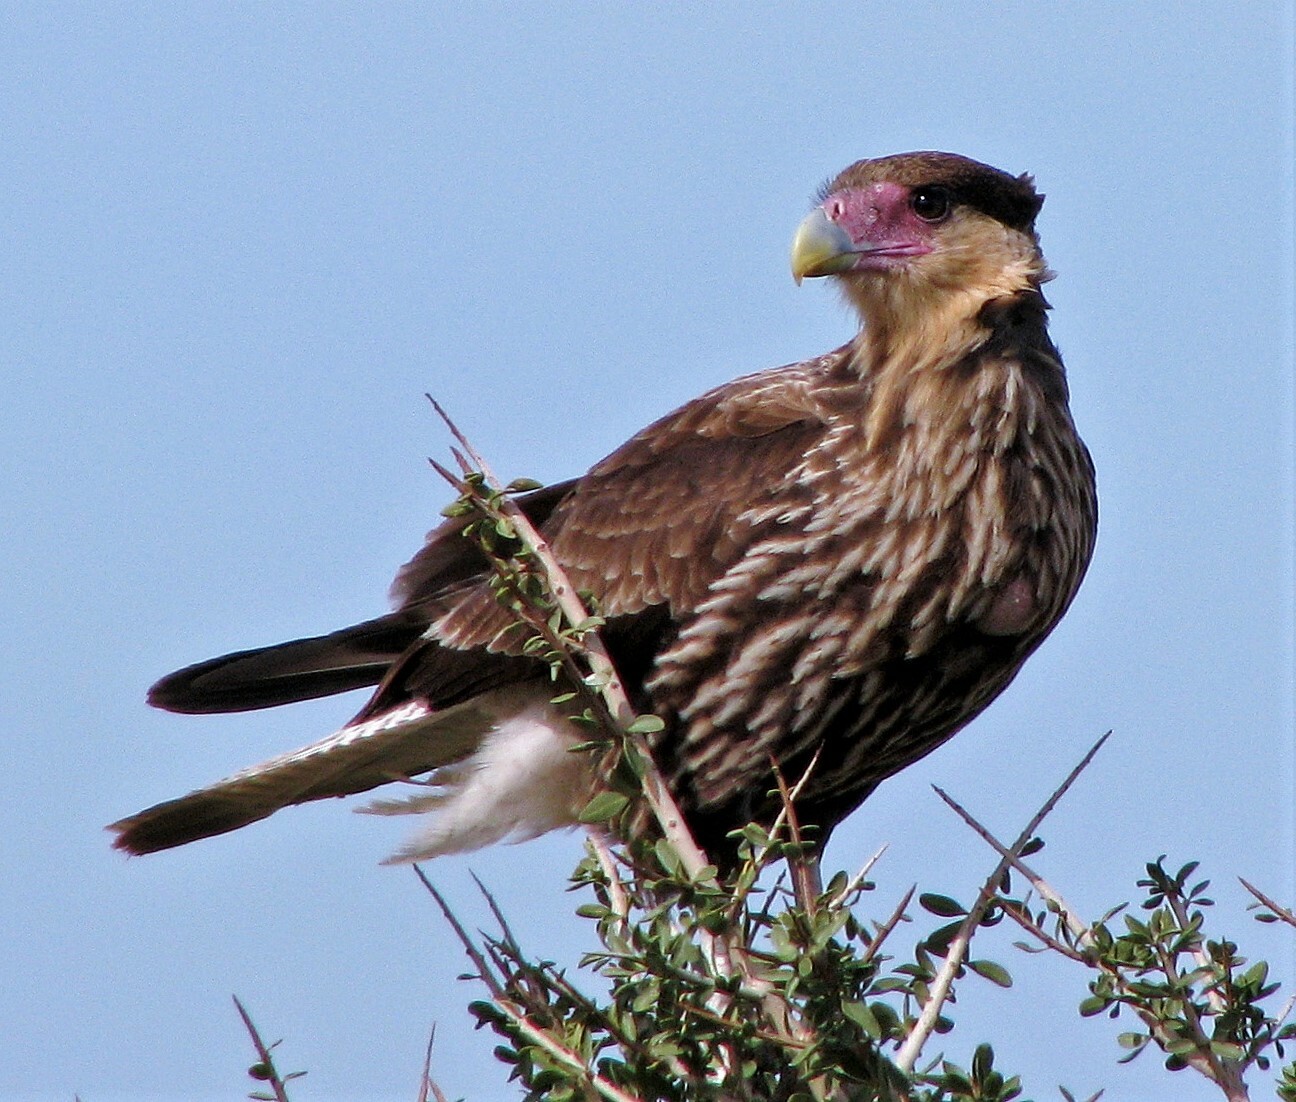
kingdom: Animalia
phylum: Chordata
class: Aves
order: Falconiformes
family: Falconidae
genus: Caracara
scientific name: Caracara plancus
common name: Southern caracara
